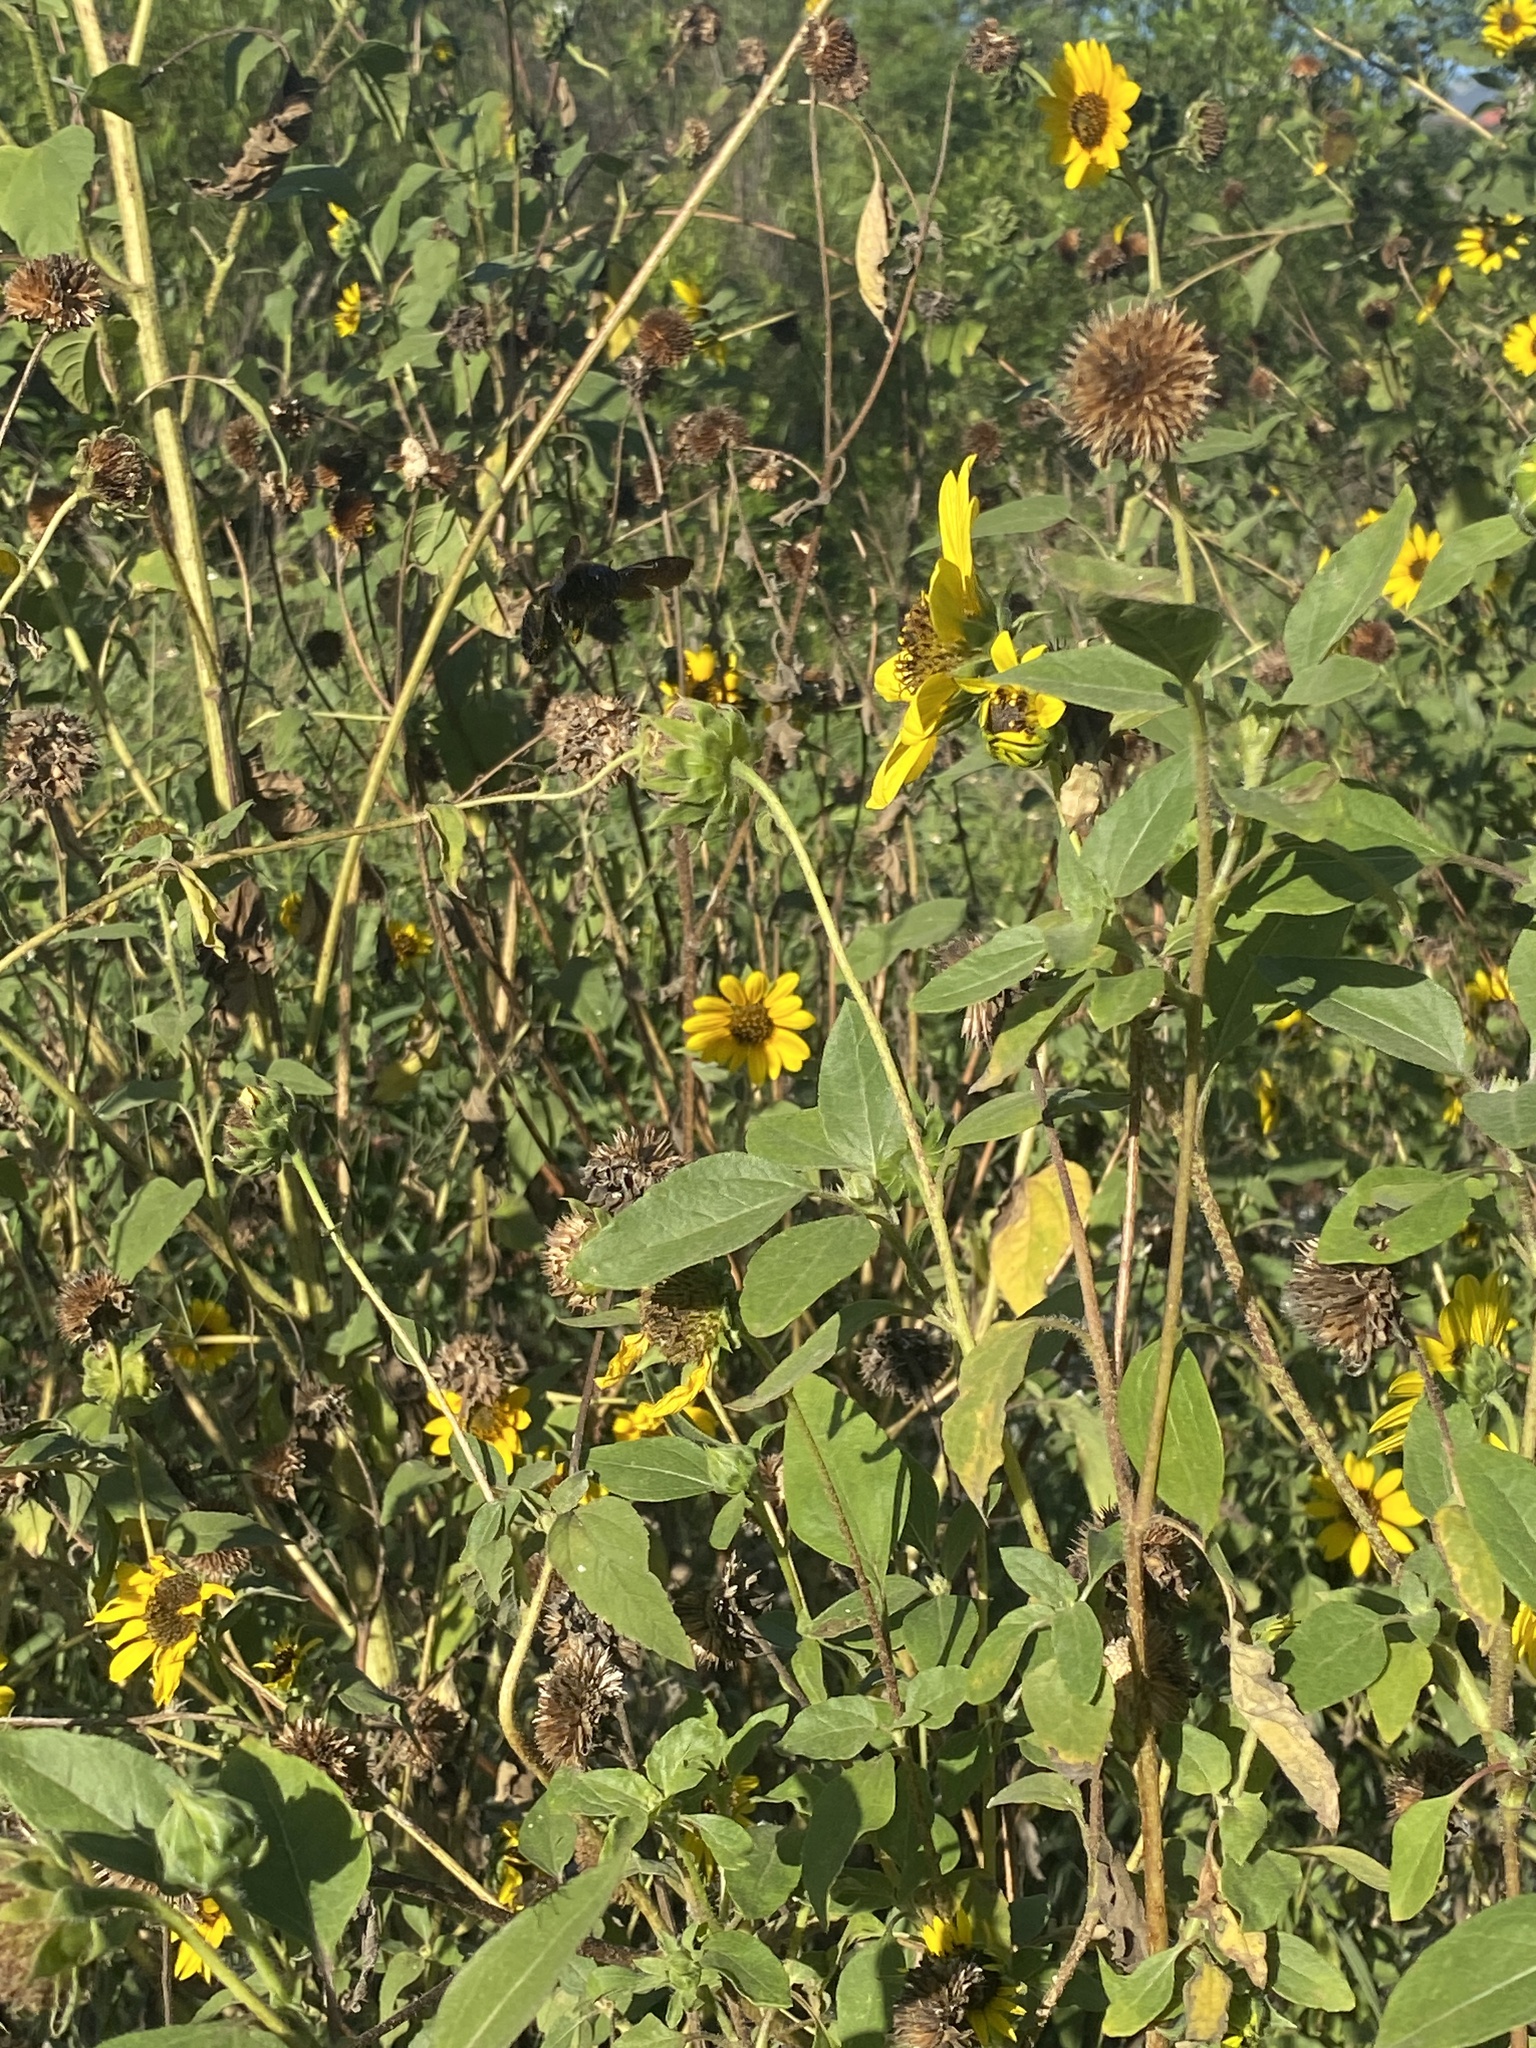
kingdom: Plantae
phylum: Tracheophyta
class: Magnoliopsida
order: Asterales
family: Asteraceae
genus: Helianthus
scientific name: Helianthus annuus
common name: Sunflower
